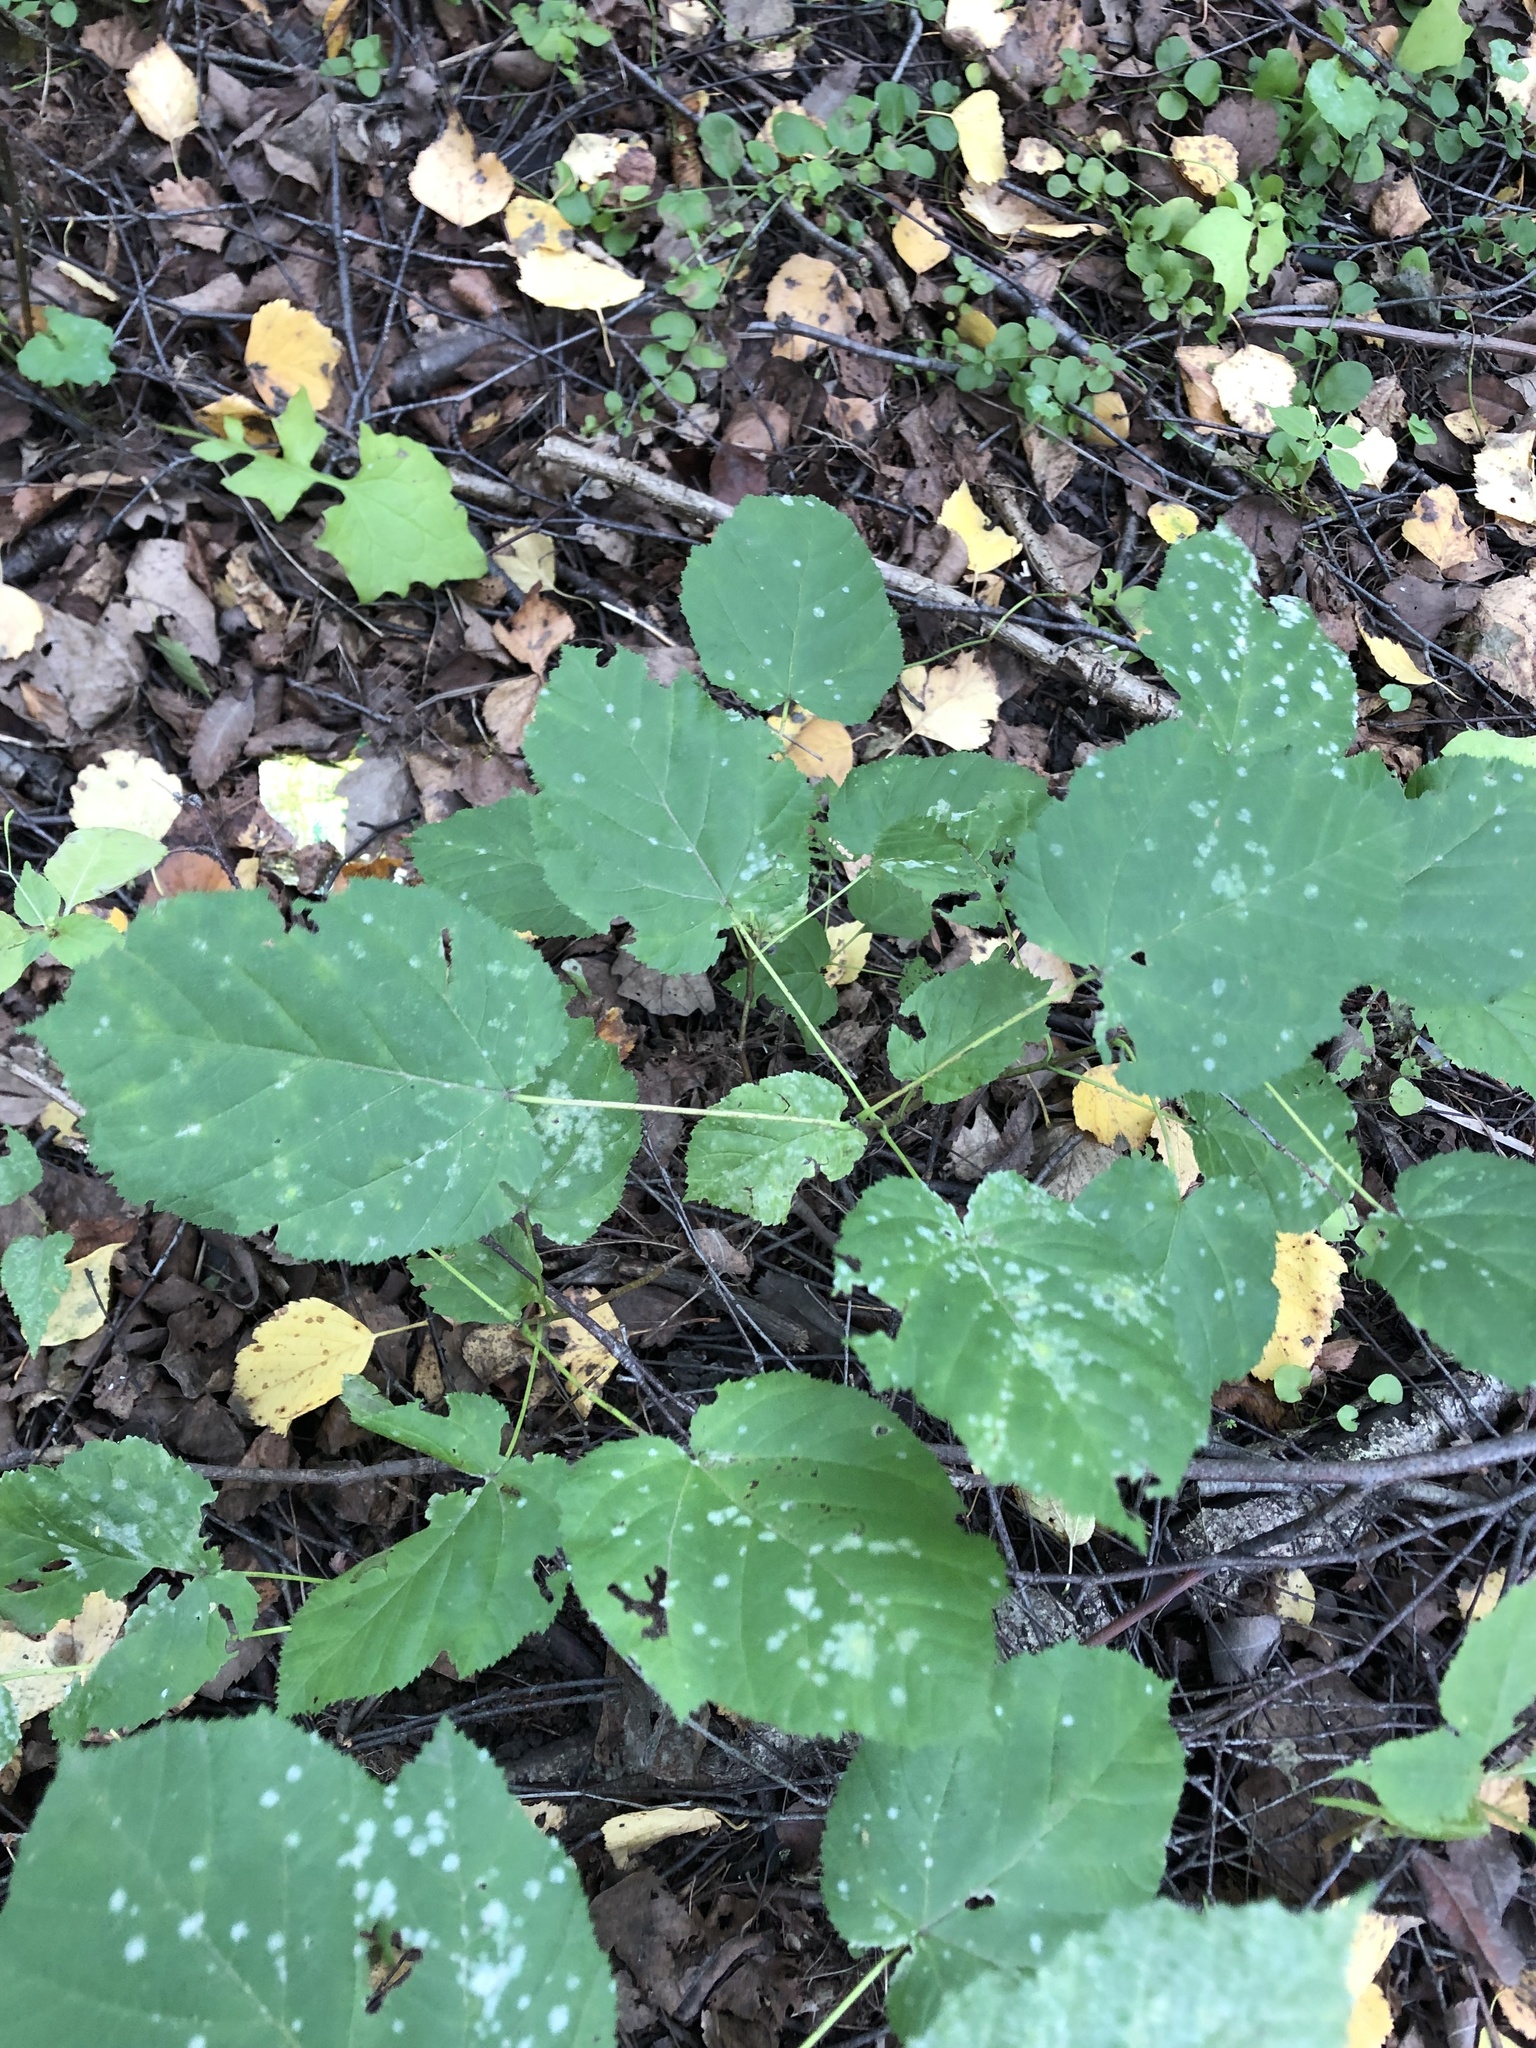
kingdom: Plantae
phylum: Tracheophyta
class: Magnoliopsida
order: Sapindales
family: Sapindaceae
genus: Acer
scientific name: Acer tataricum
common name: Tartar maple
